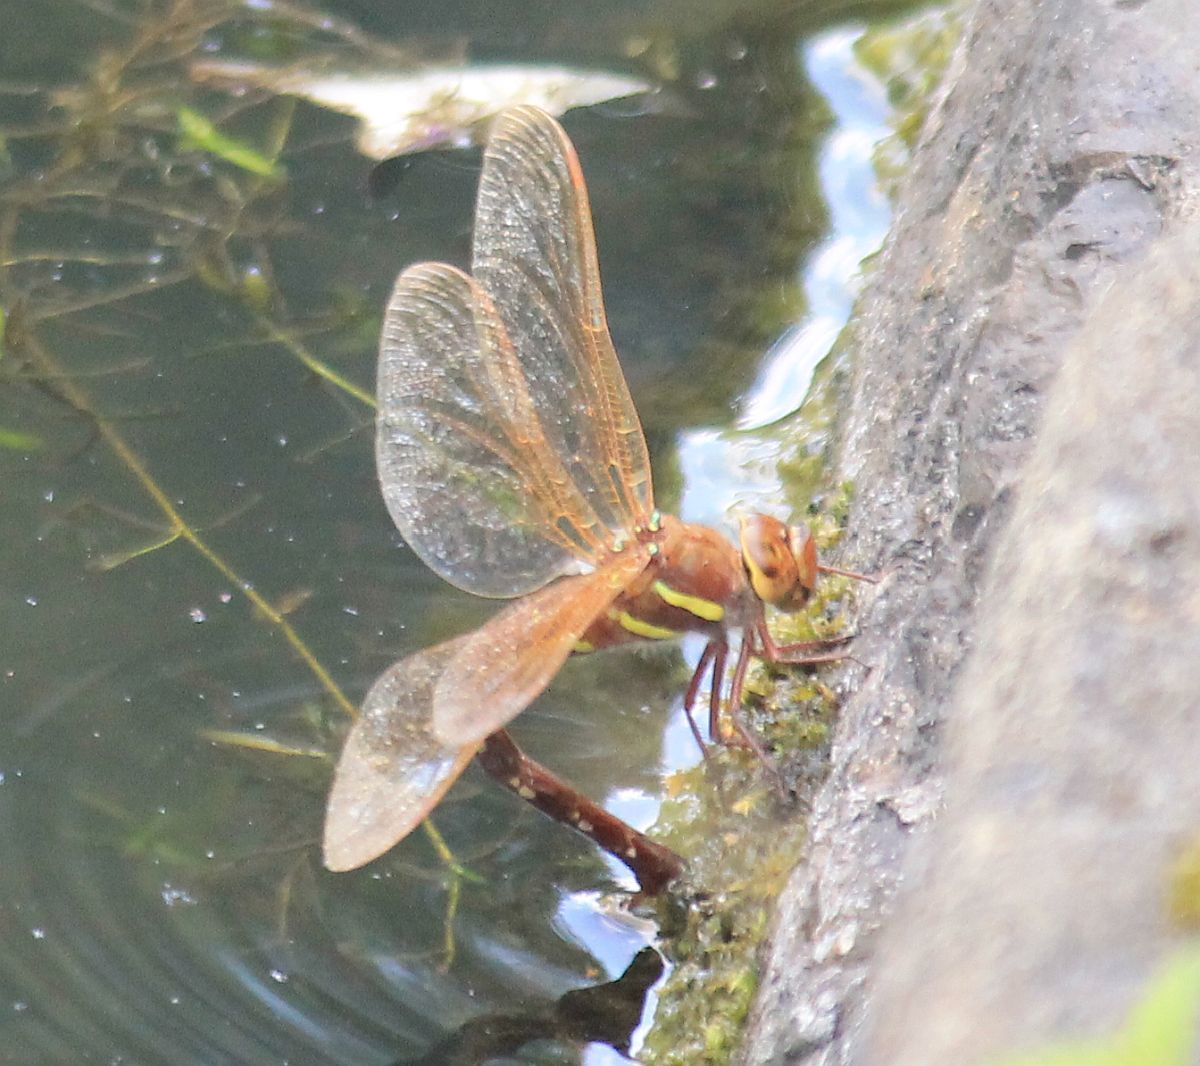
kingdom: Animalia
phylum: Arthropoda
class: Insecta
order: Odonata
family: Aeshnidae
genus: Aeshna
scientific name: Aeshna grandis
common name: Brown hawker
